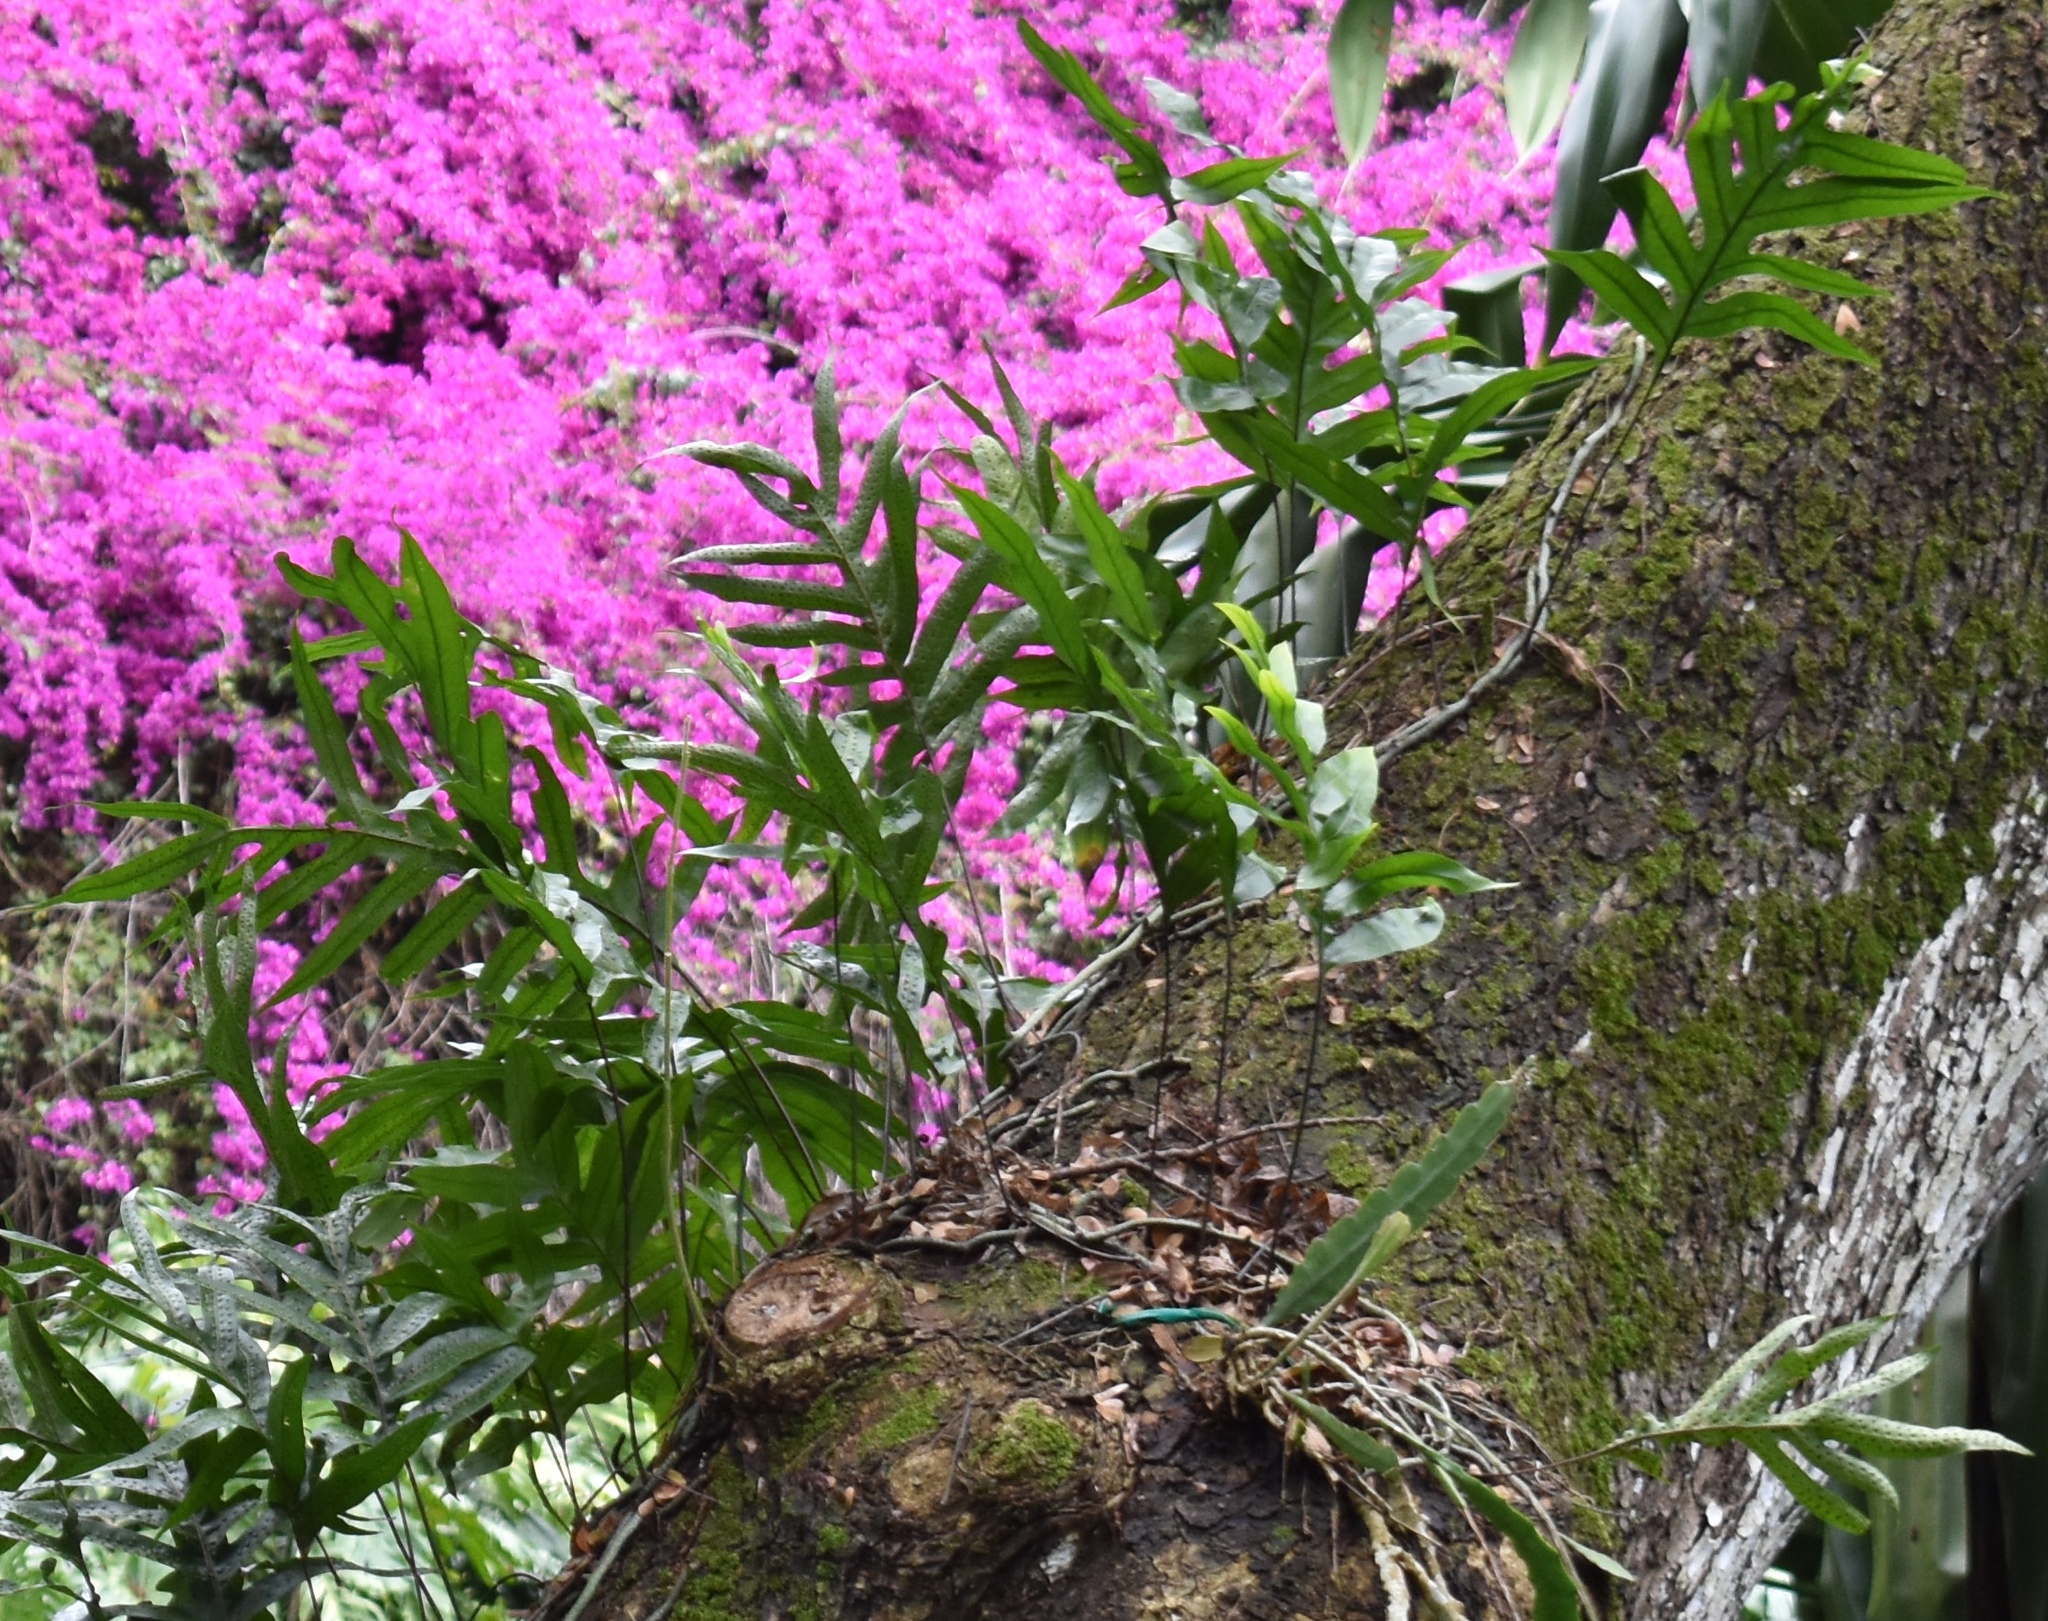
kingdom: Plantae
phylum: Tracheophyta
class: Polypodiopsida
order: Polypodiales
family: Polypodiaceae
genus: Microsorum
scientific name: Microsorum grossum
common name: Musk fern
